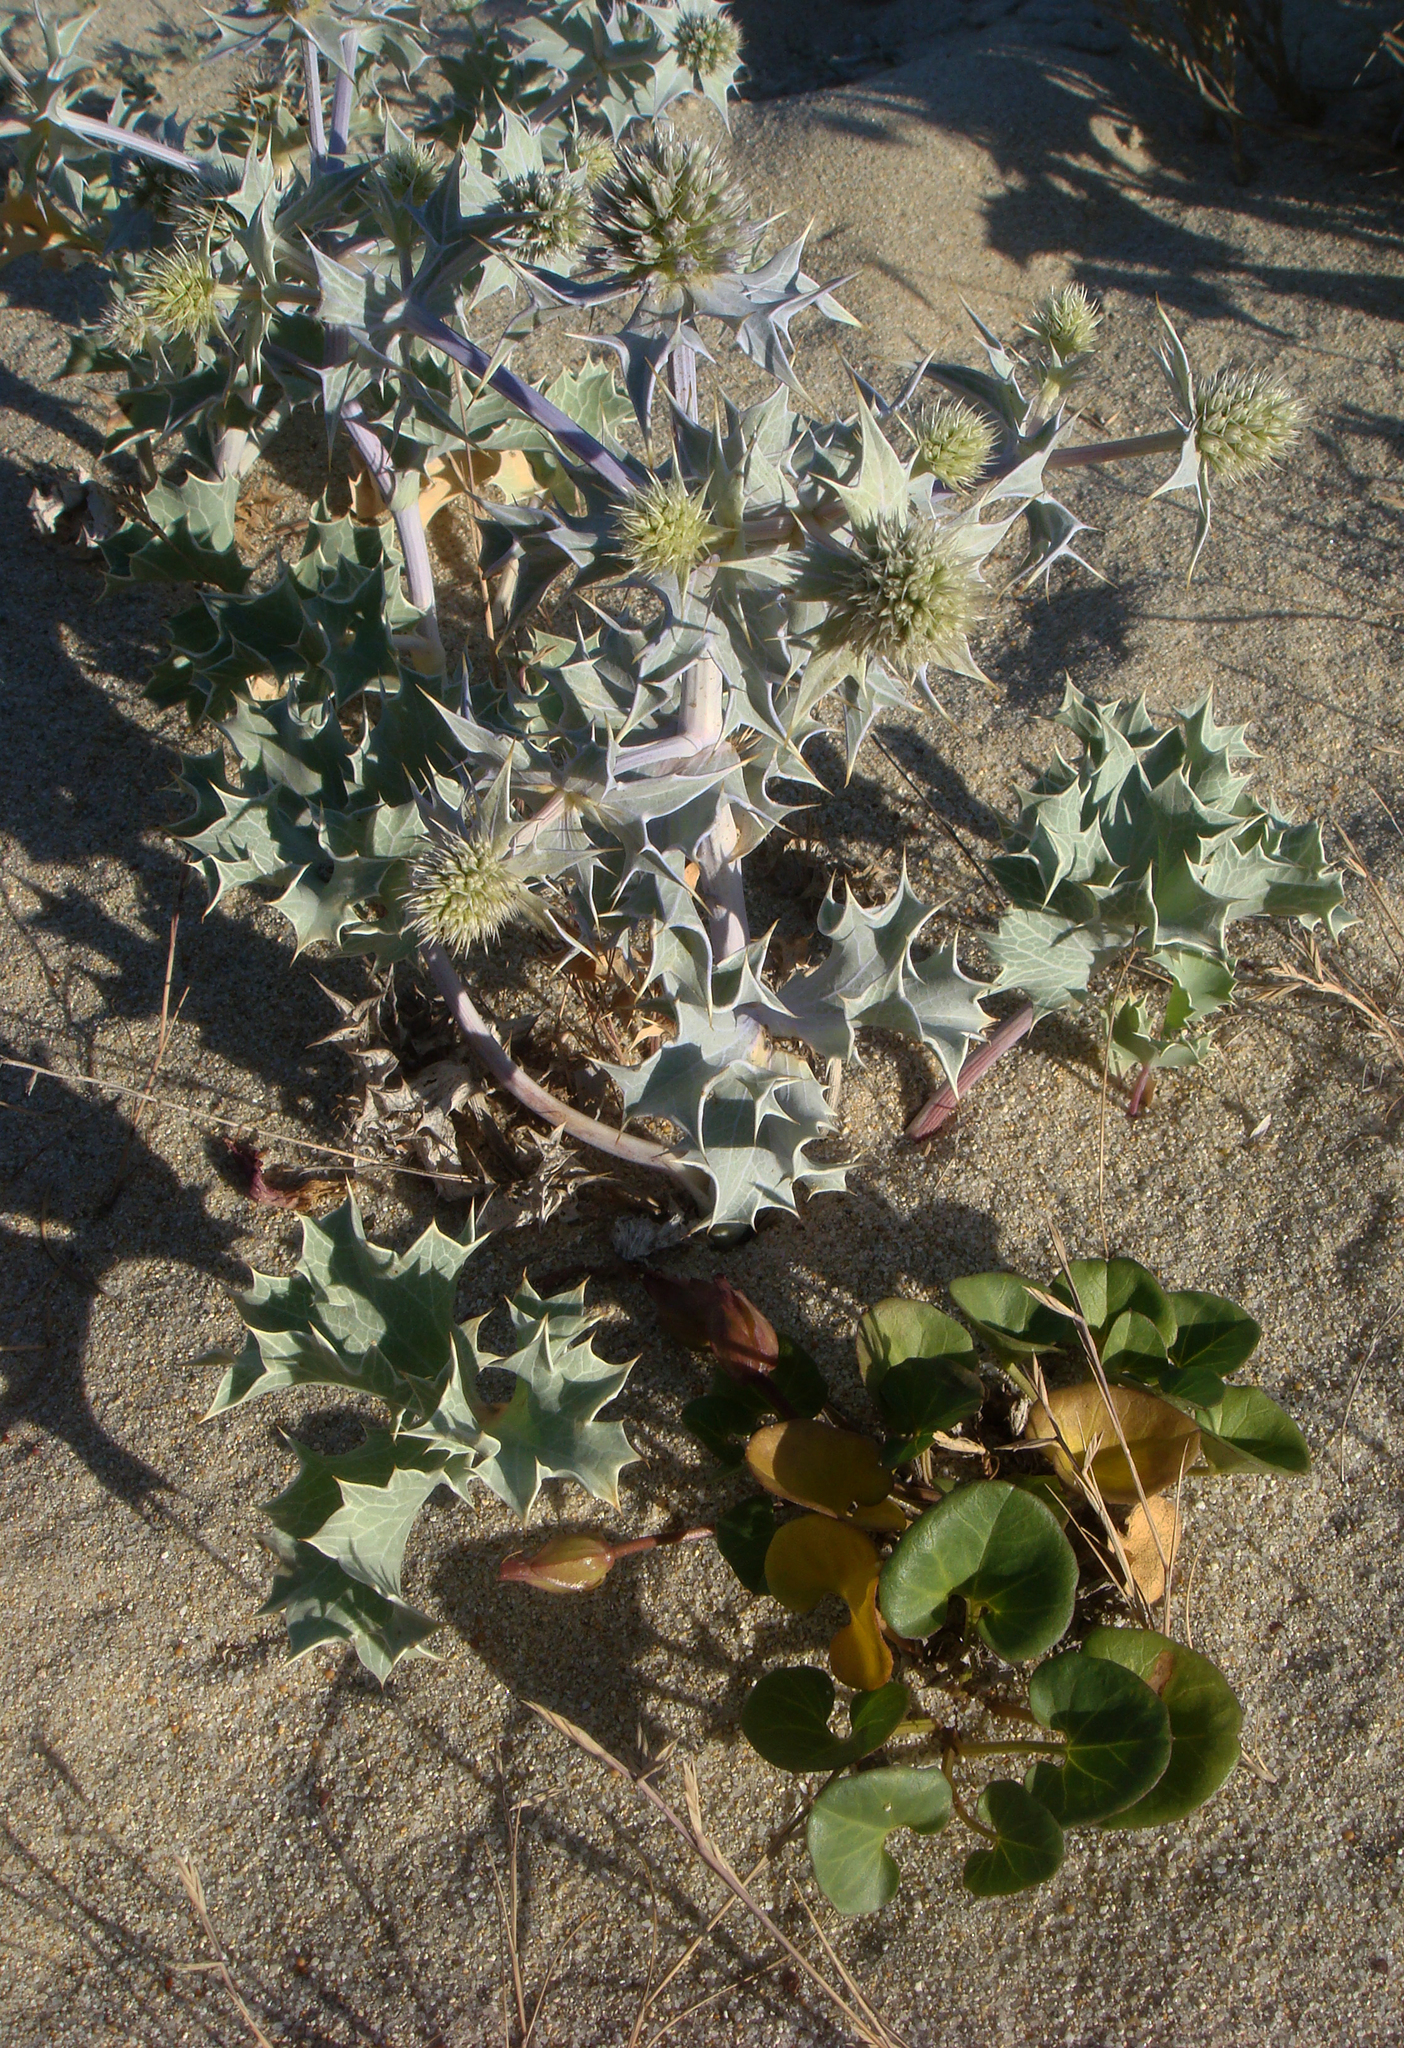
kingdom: Plantae
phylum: Tracheophyta
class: Magnoliopsida
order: Apiales
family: Apiaceae
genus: Eryngium
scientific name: Eryngium maritimum
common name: Sea-holly
